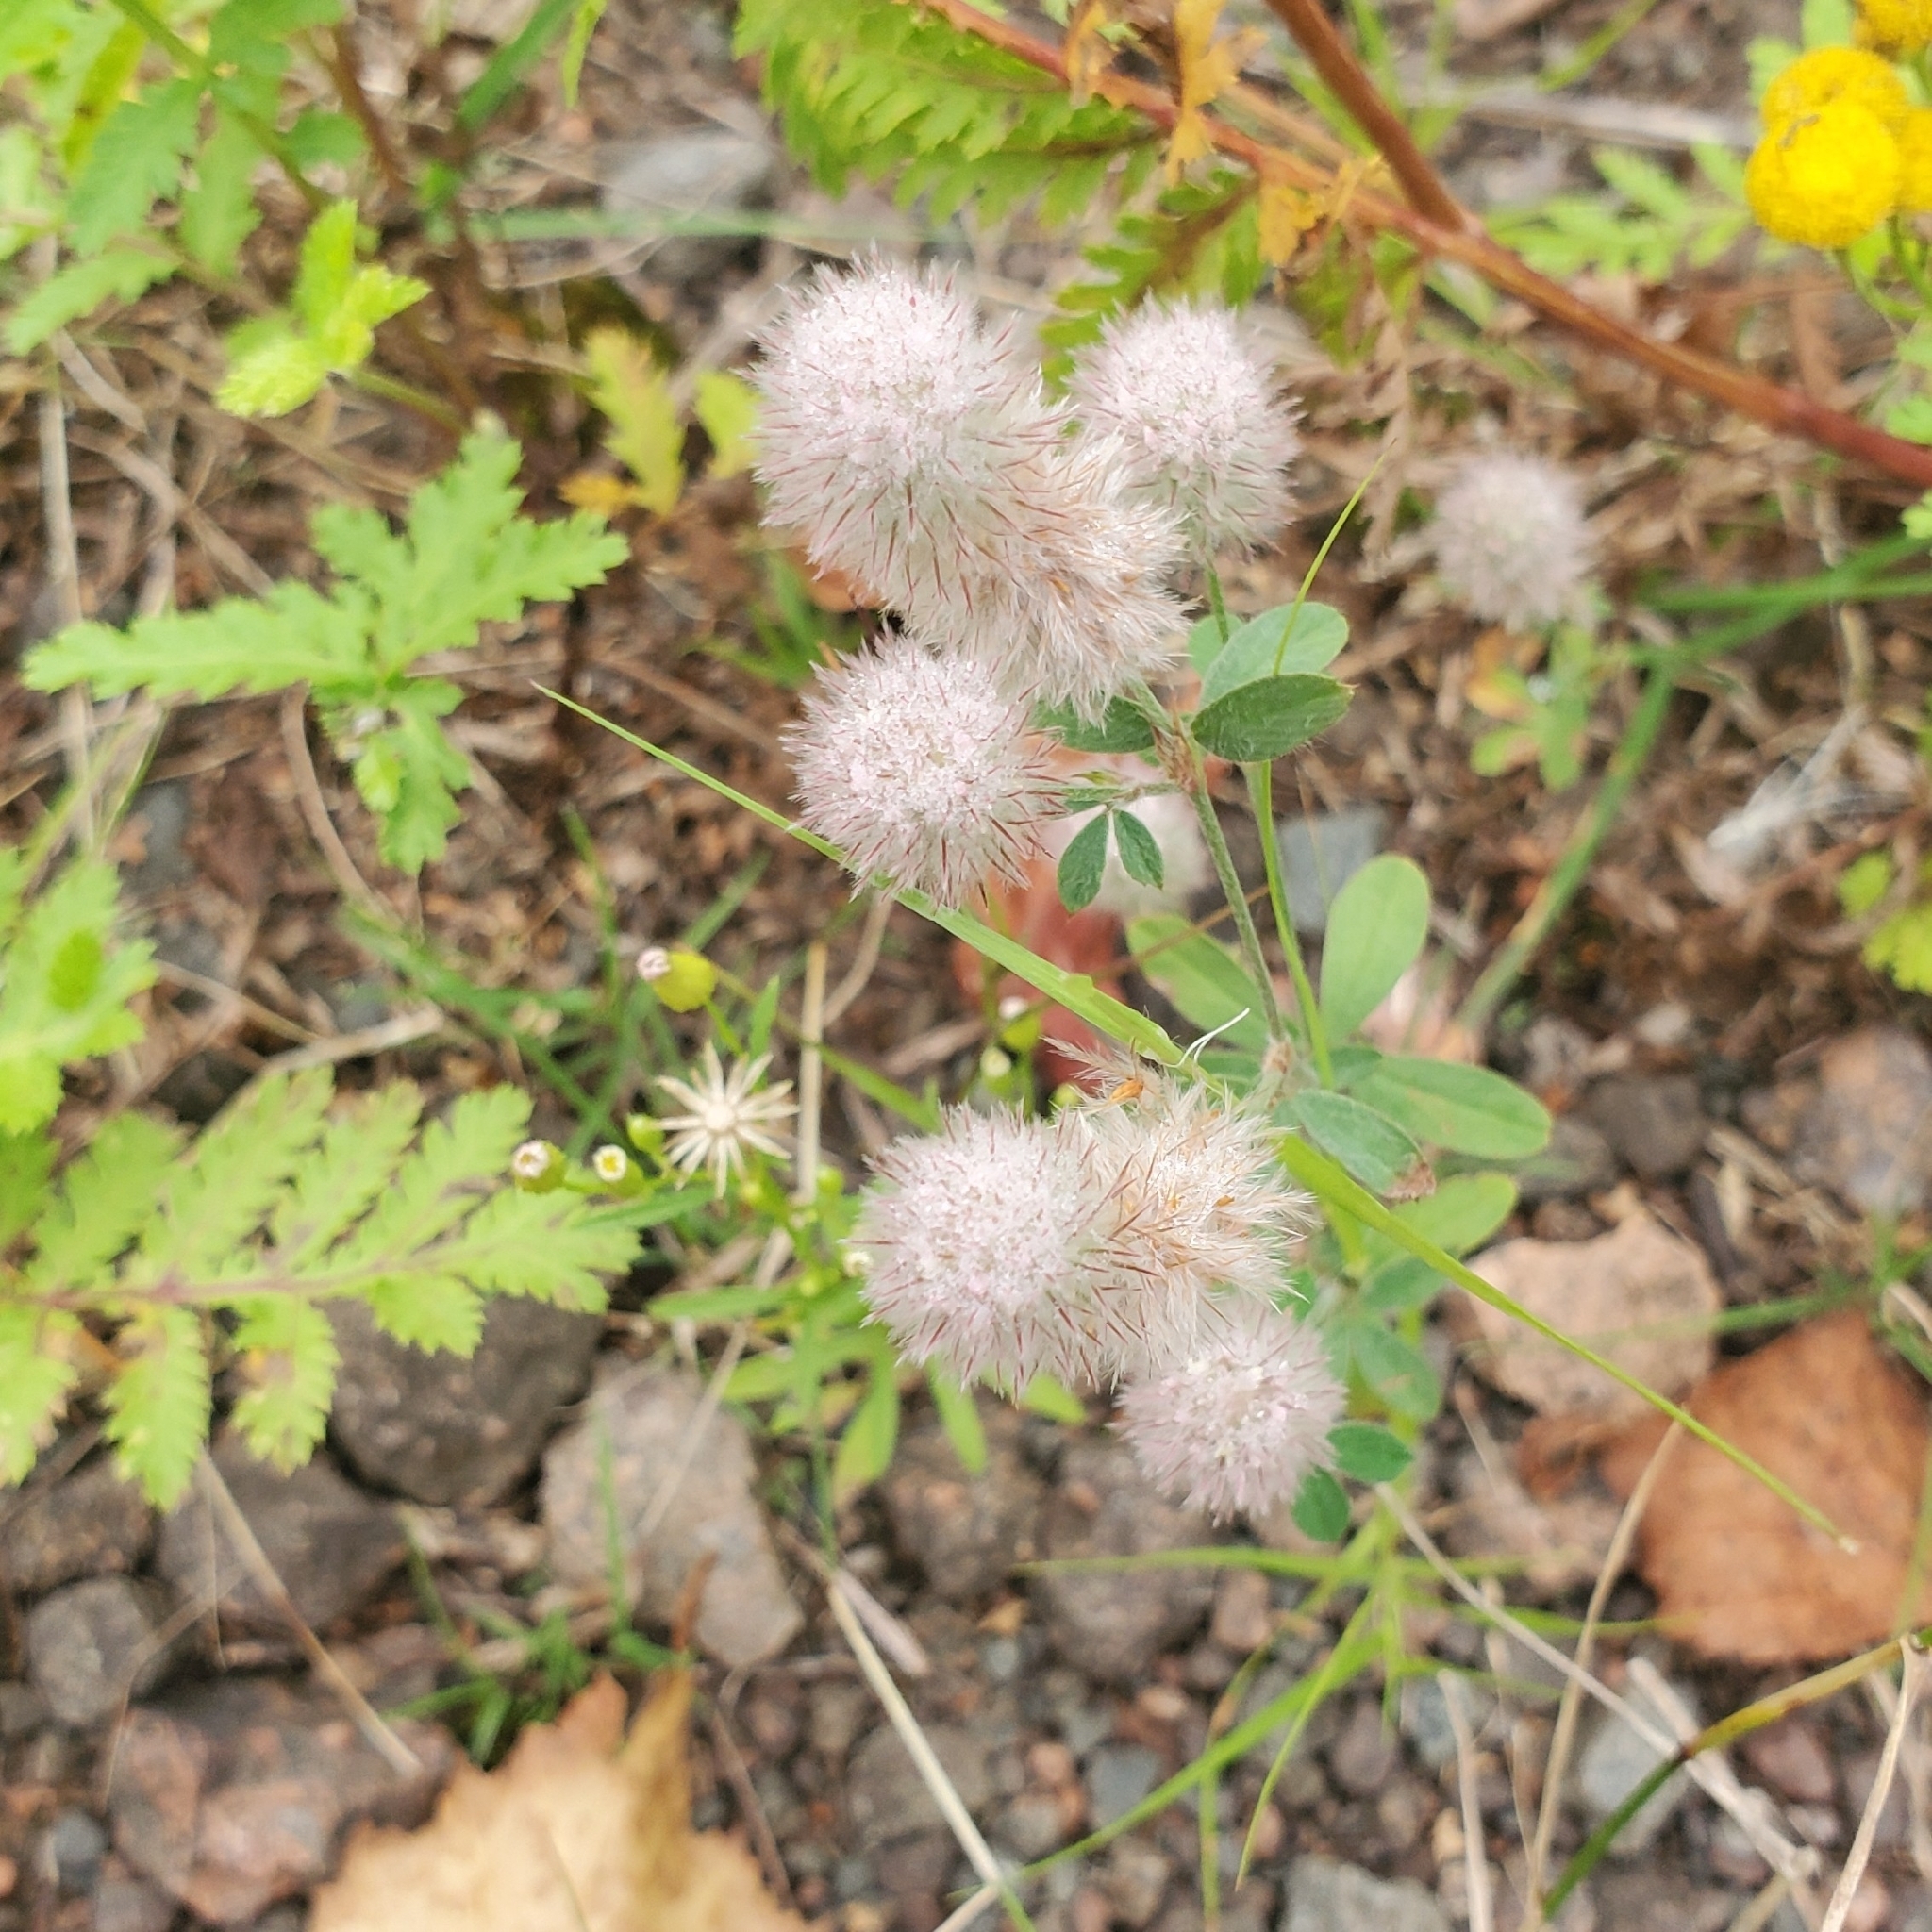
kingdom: Plantae
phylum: Tracheophyta
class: Magnoliopsida
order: Fabales
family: Fabaceae
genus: Trifolium
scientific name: Trifolium arvense
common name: Hare's-foot clover
